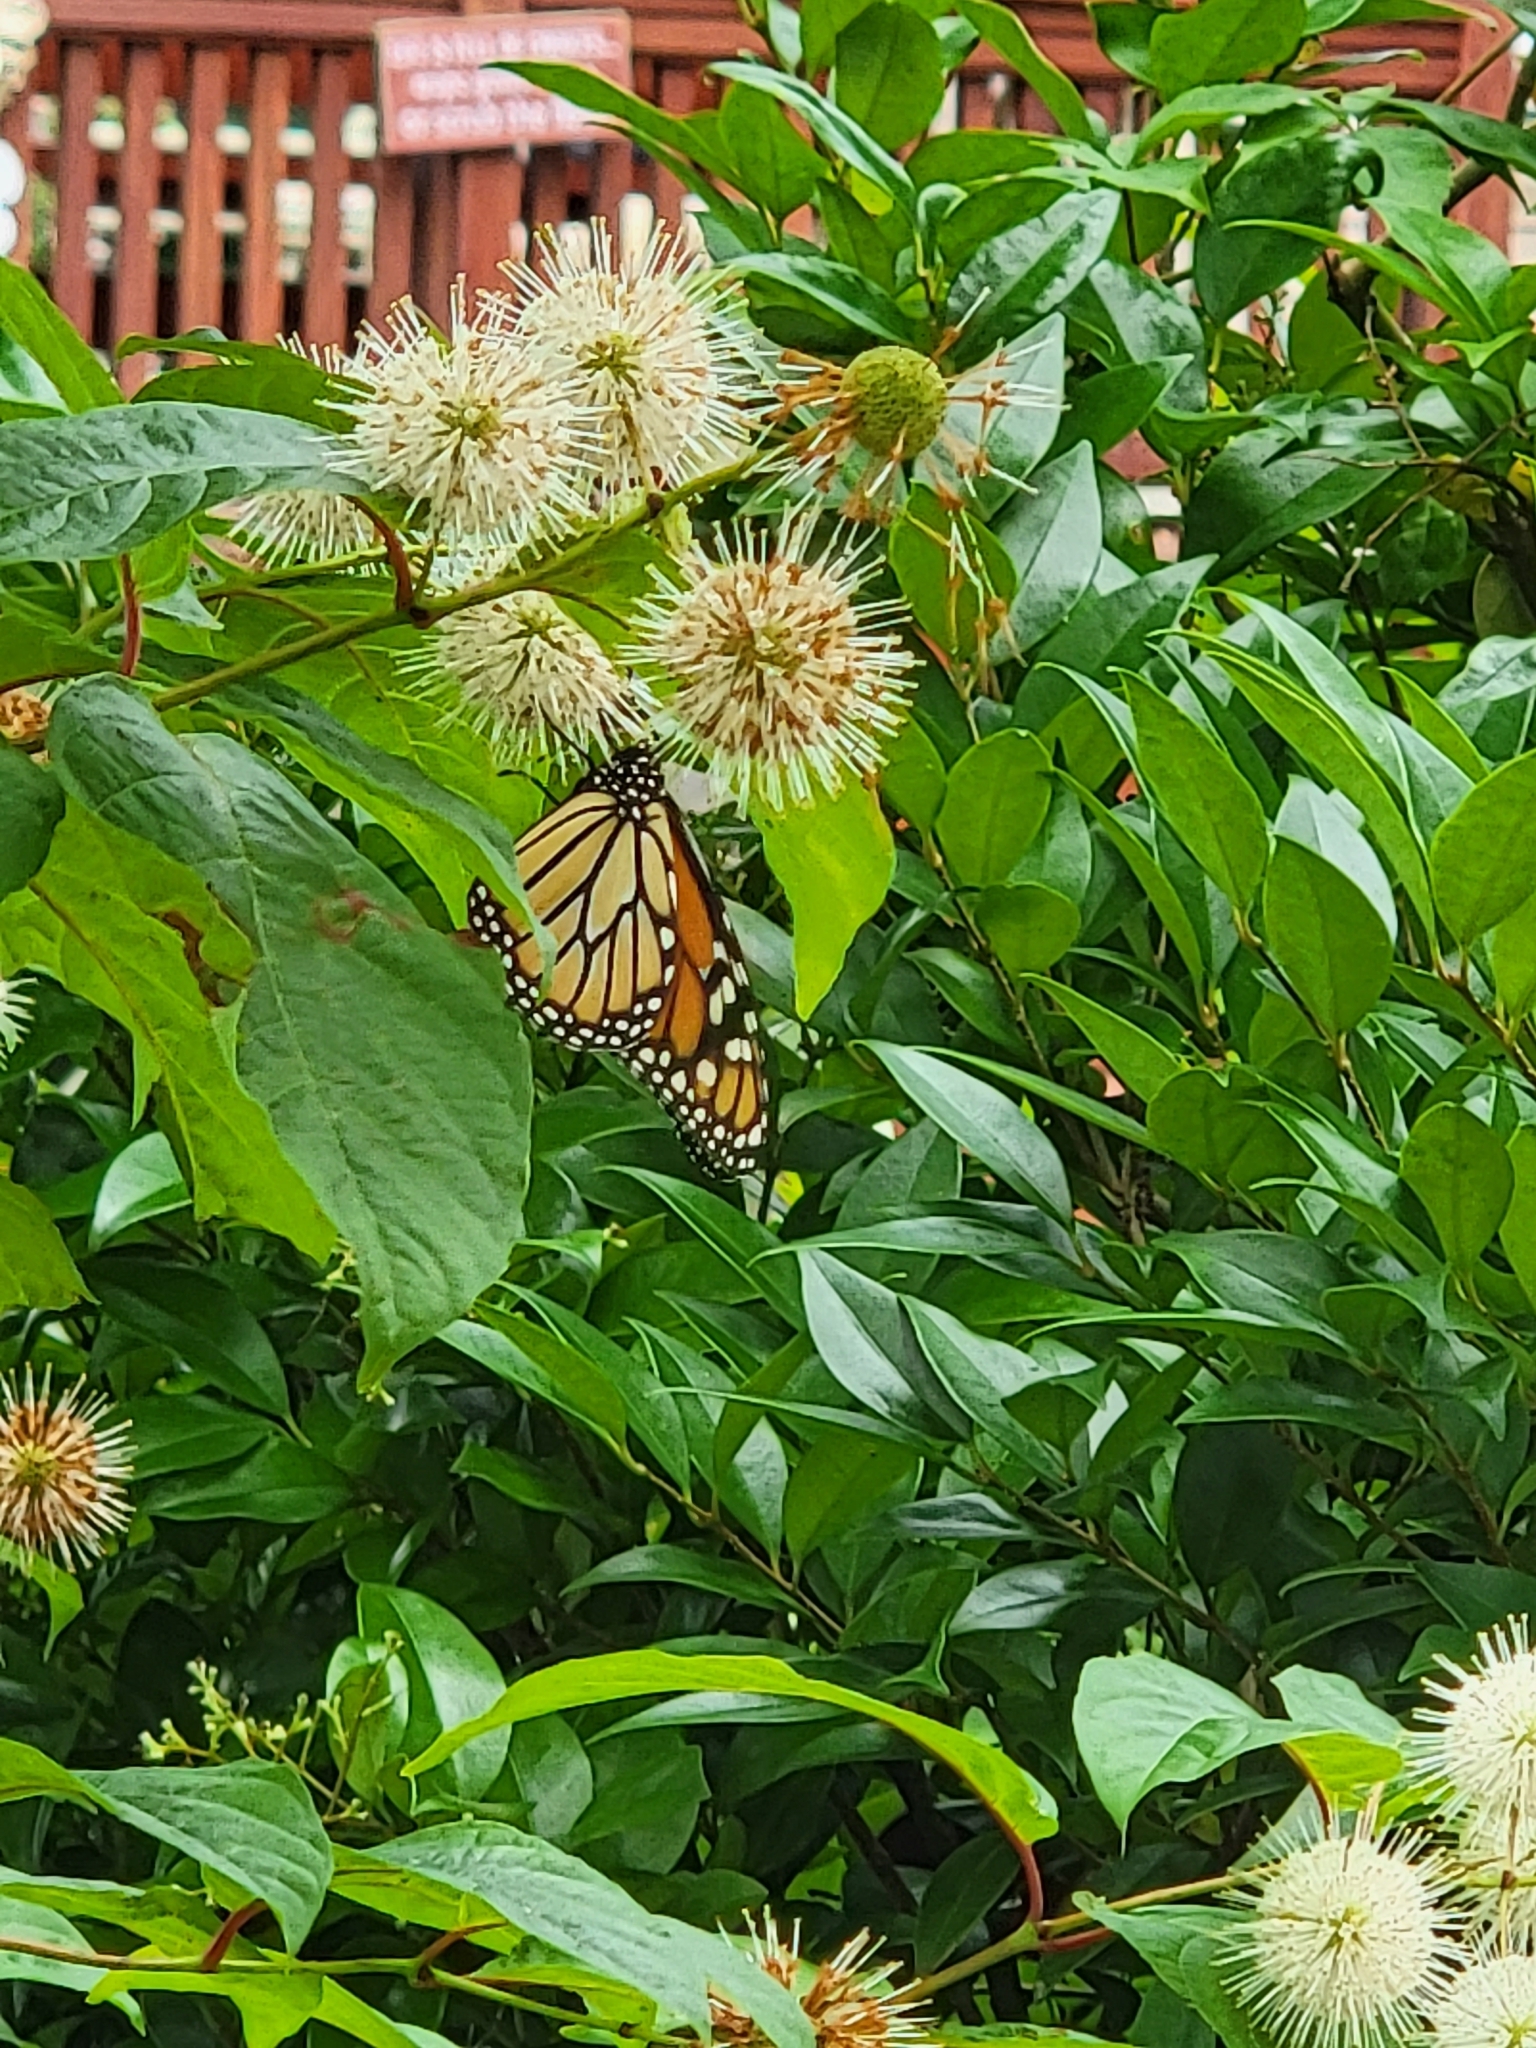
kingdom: Animalia
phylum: Arthropoda
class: Insecta
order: Lepidoptera
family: Nymphalidae
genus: Danaus
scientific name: Danaus plexippus
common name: Monarch
